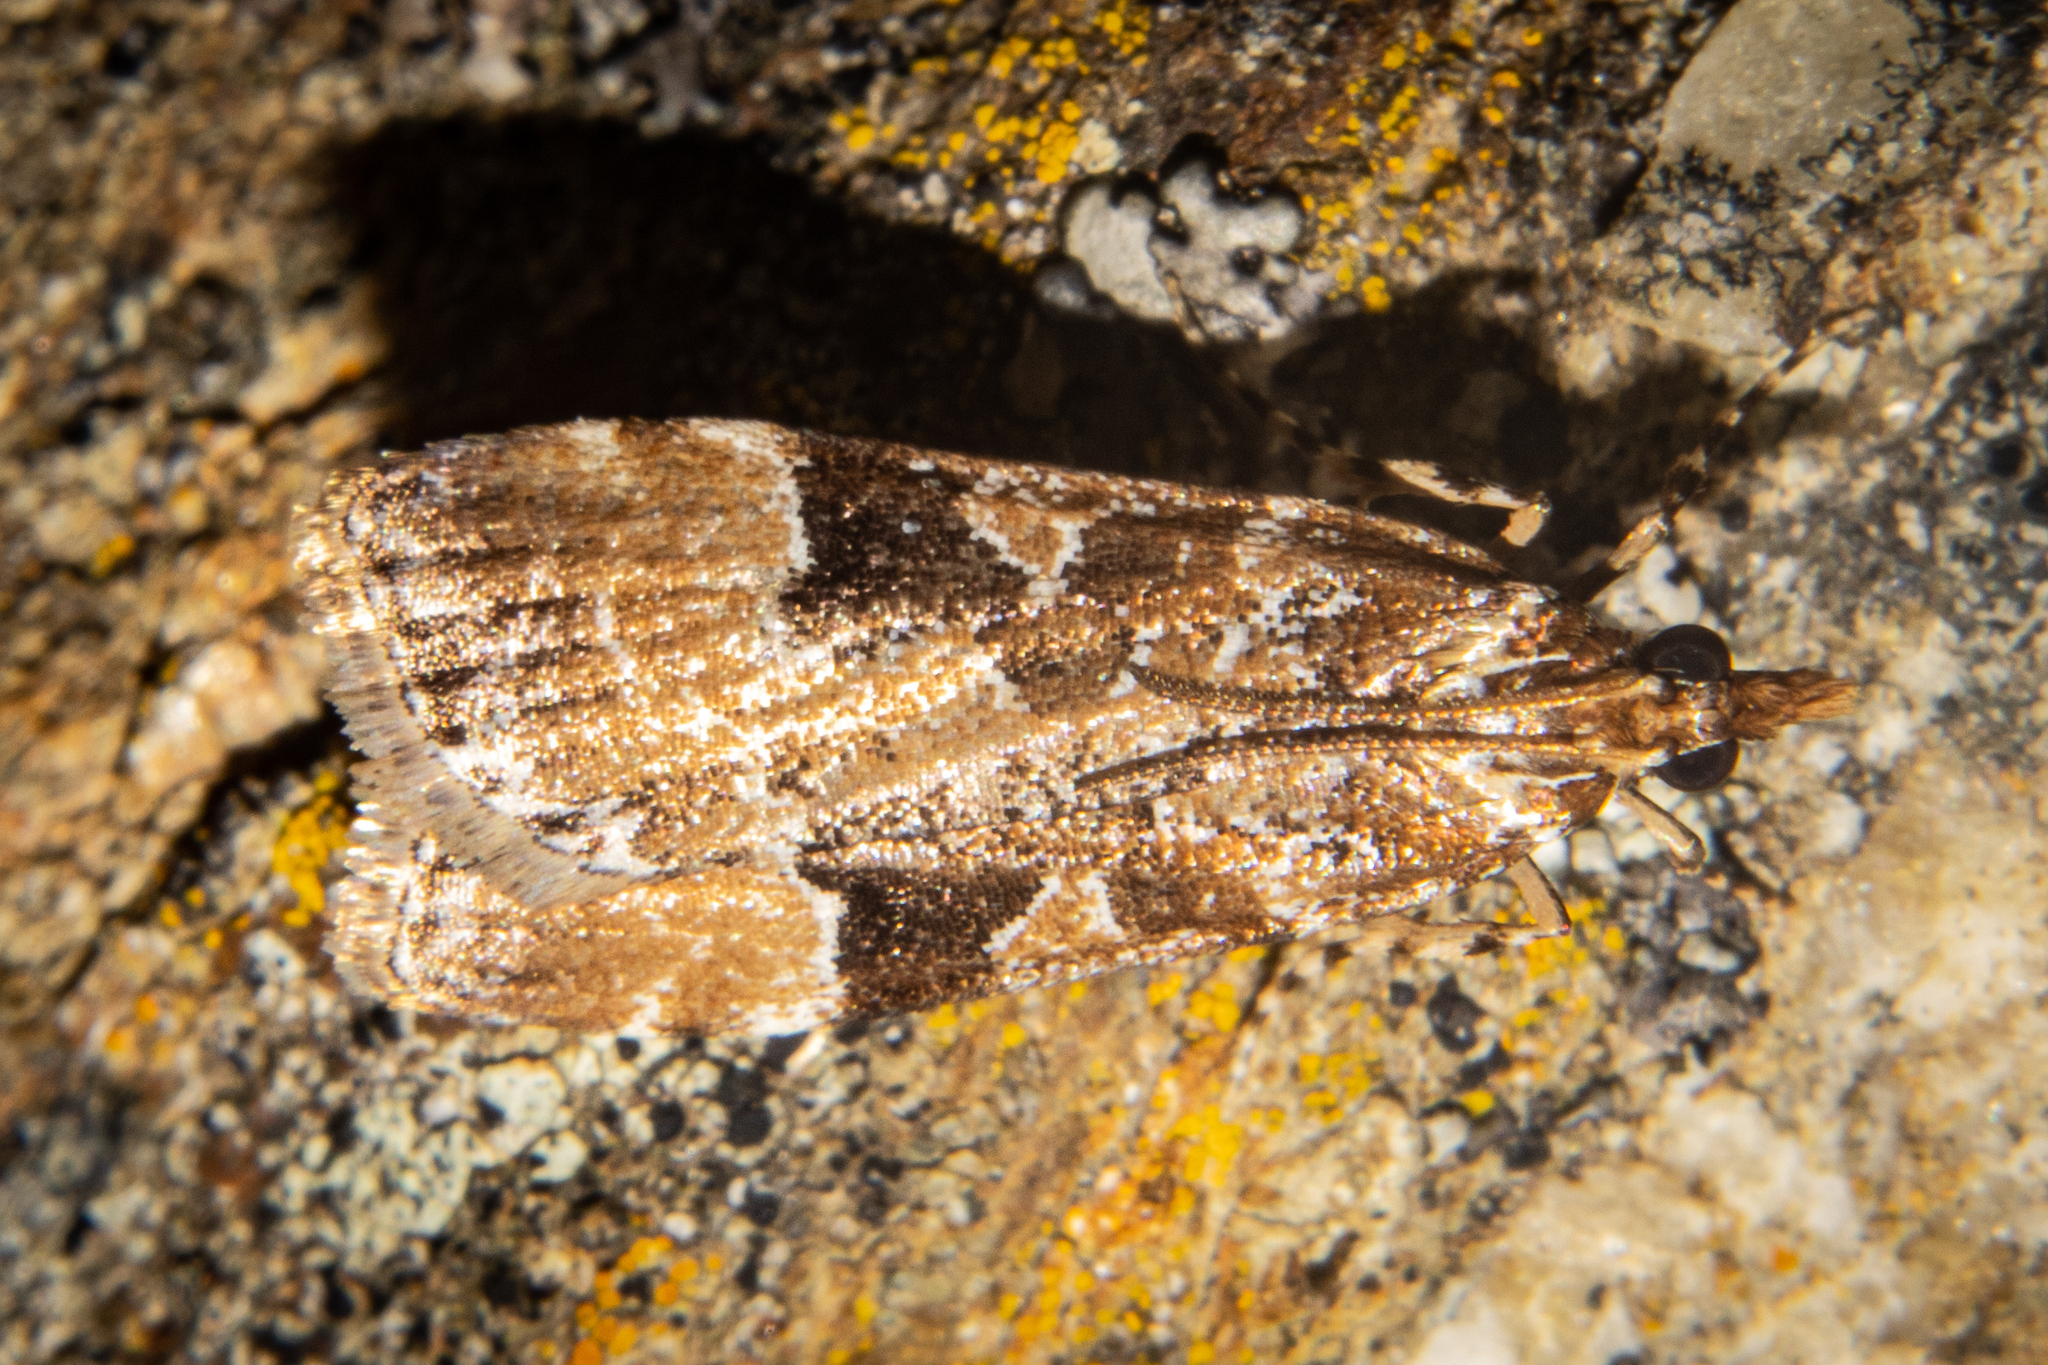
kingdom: Animalia
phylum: Arthropoda
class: Insecta
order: Lepidoptera
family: Crambidae
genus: Scoparia
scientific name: Scoparia ustimacula
